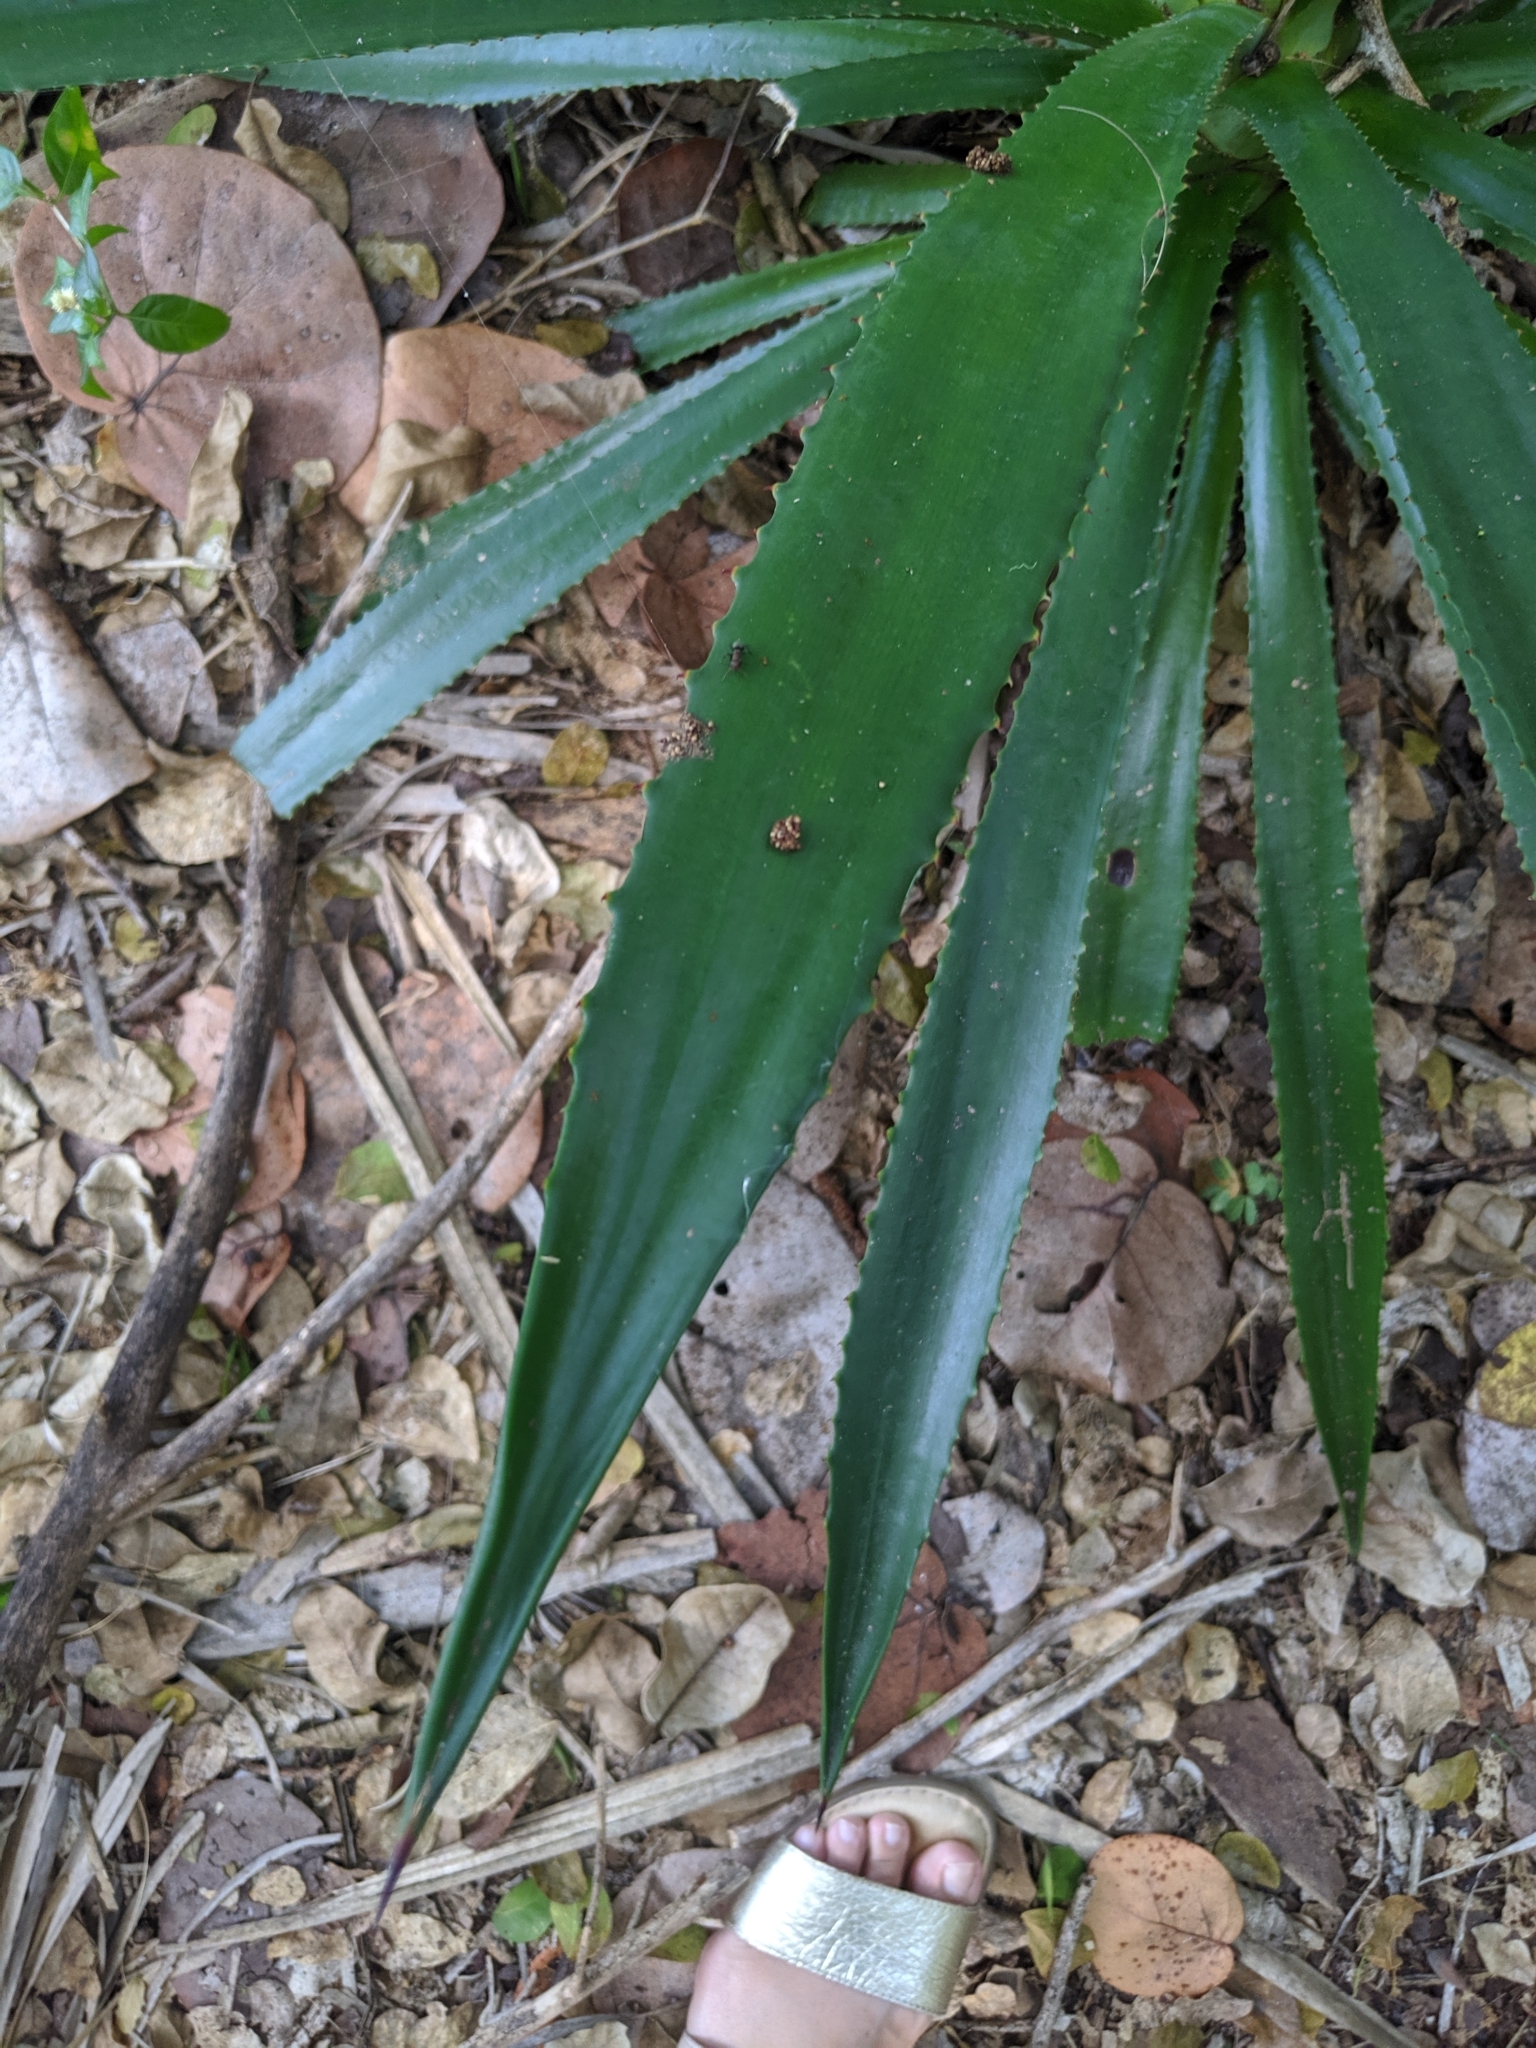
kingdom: Plantae
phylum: Tracheophyta
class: Liliopsida
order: Asparagales
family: Asparagaceae
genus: Agave
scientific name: Agave decipiens
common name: False sisal
